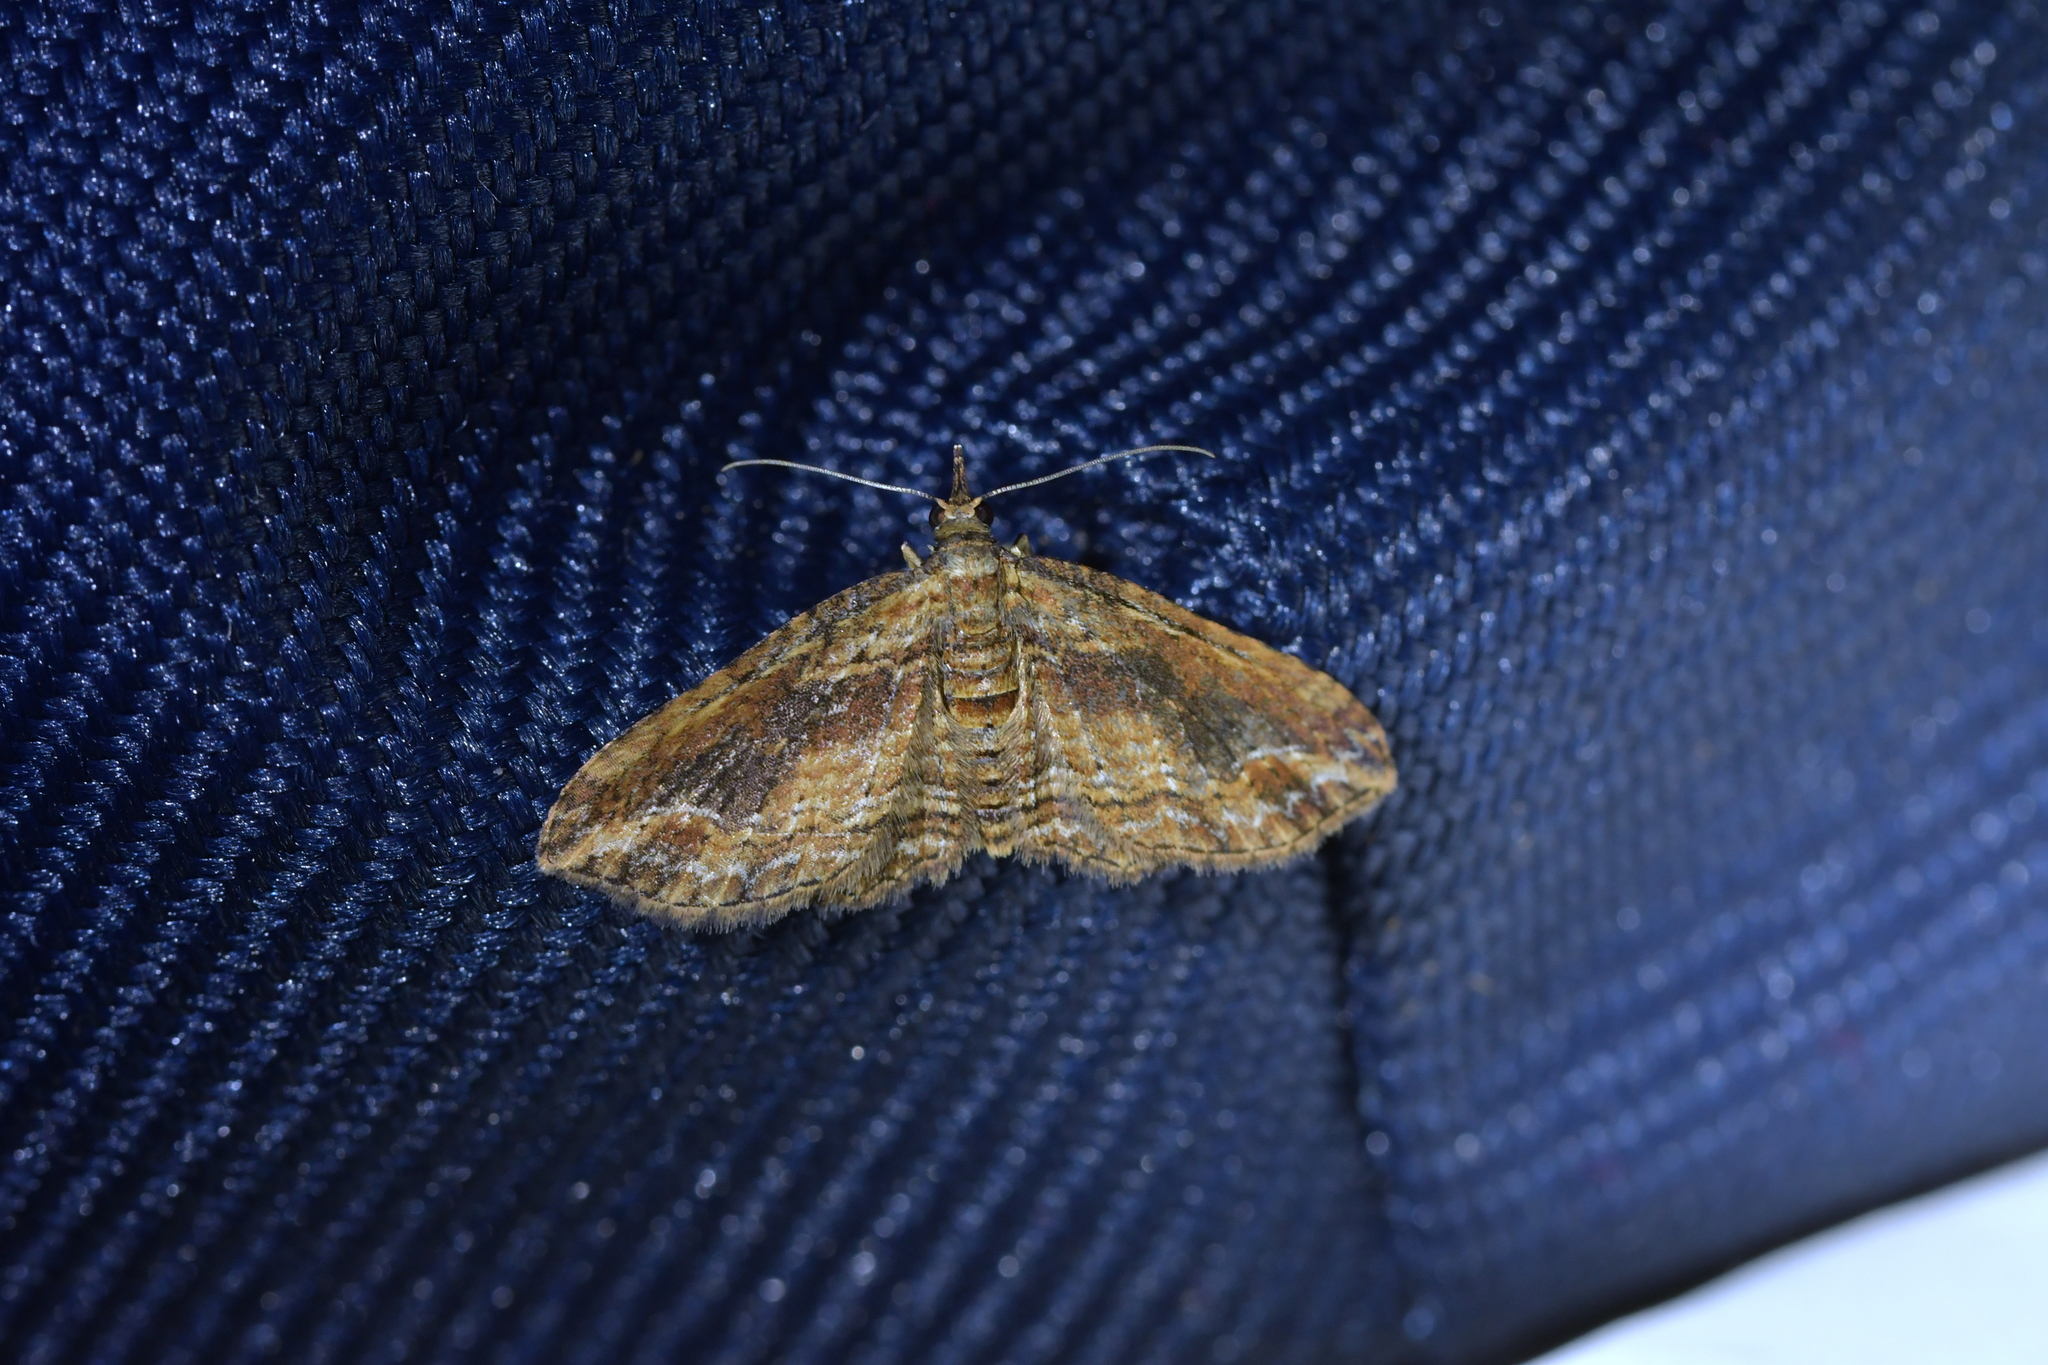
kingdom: Animalia
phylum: Arthropoda
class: Insecta
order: Lepidoptera
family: Geometridae
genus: Chloroclystis
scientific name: Chloroclystis filata
